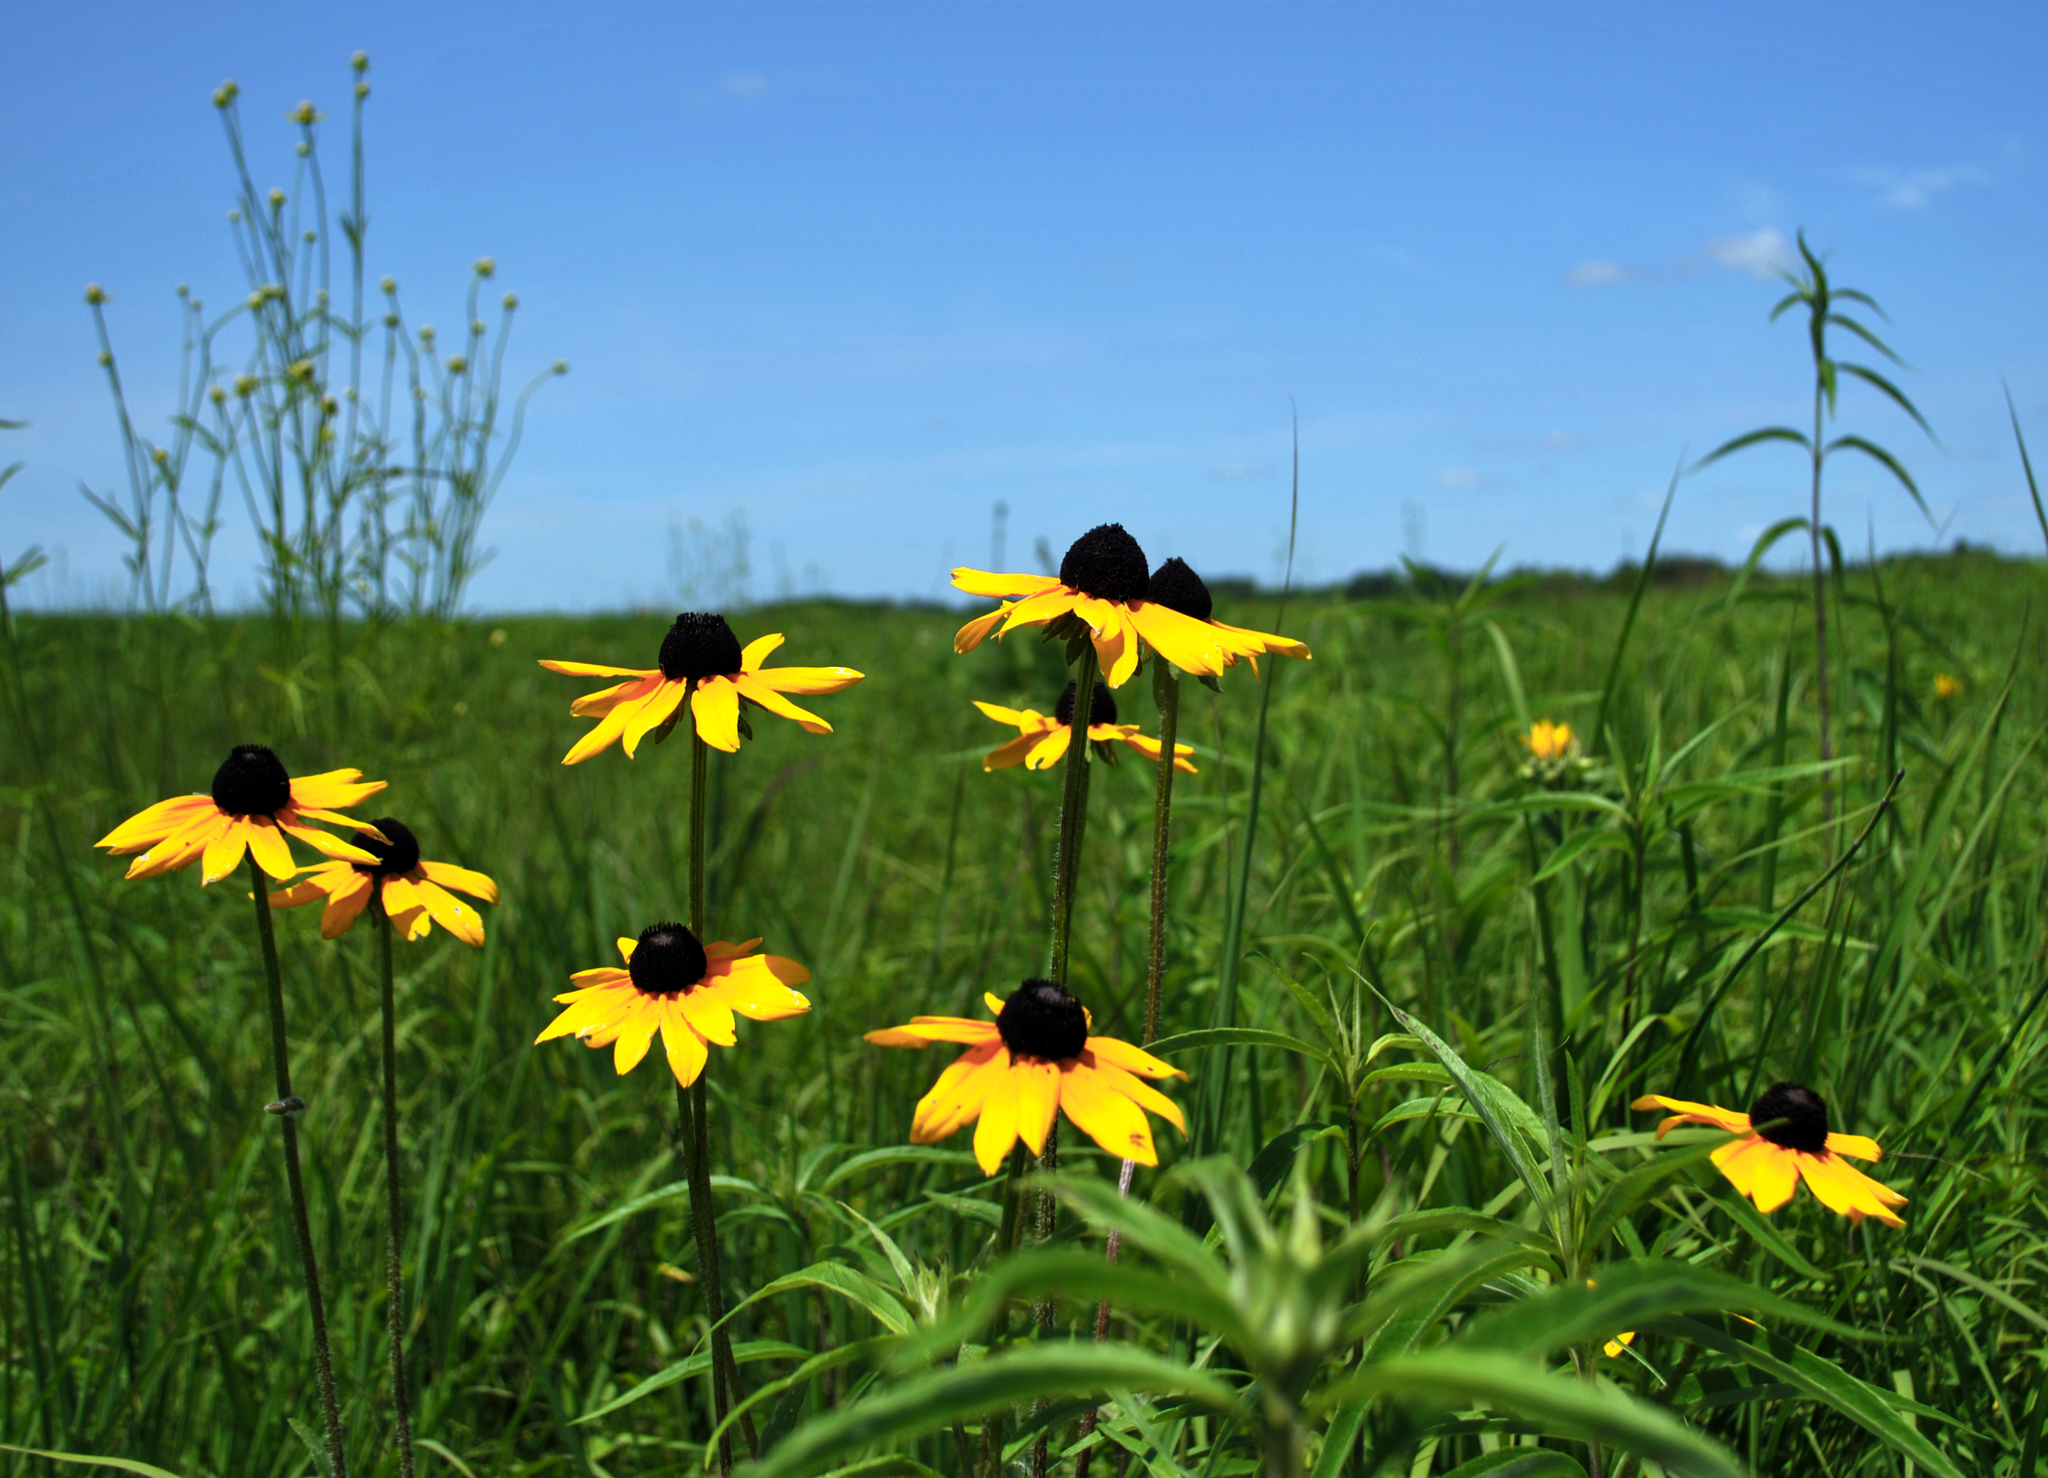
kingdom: Plantae
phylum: Tracheophyta
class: Magnoliopsida
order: Asterales
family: Asteraceae
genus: Rudbeckia
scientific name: Rudbeckia hirta
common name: Black-eyed-susan
